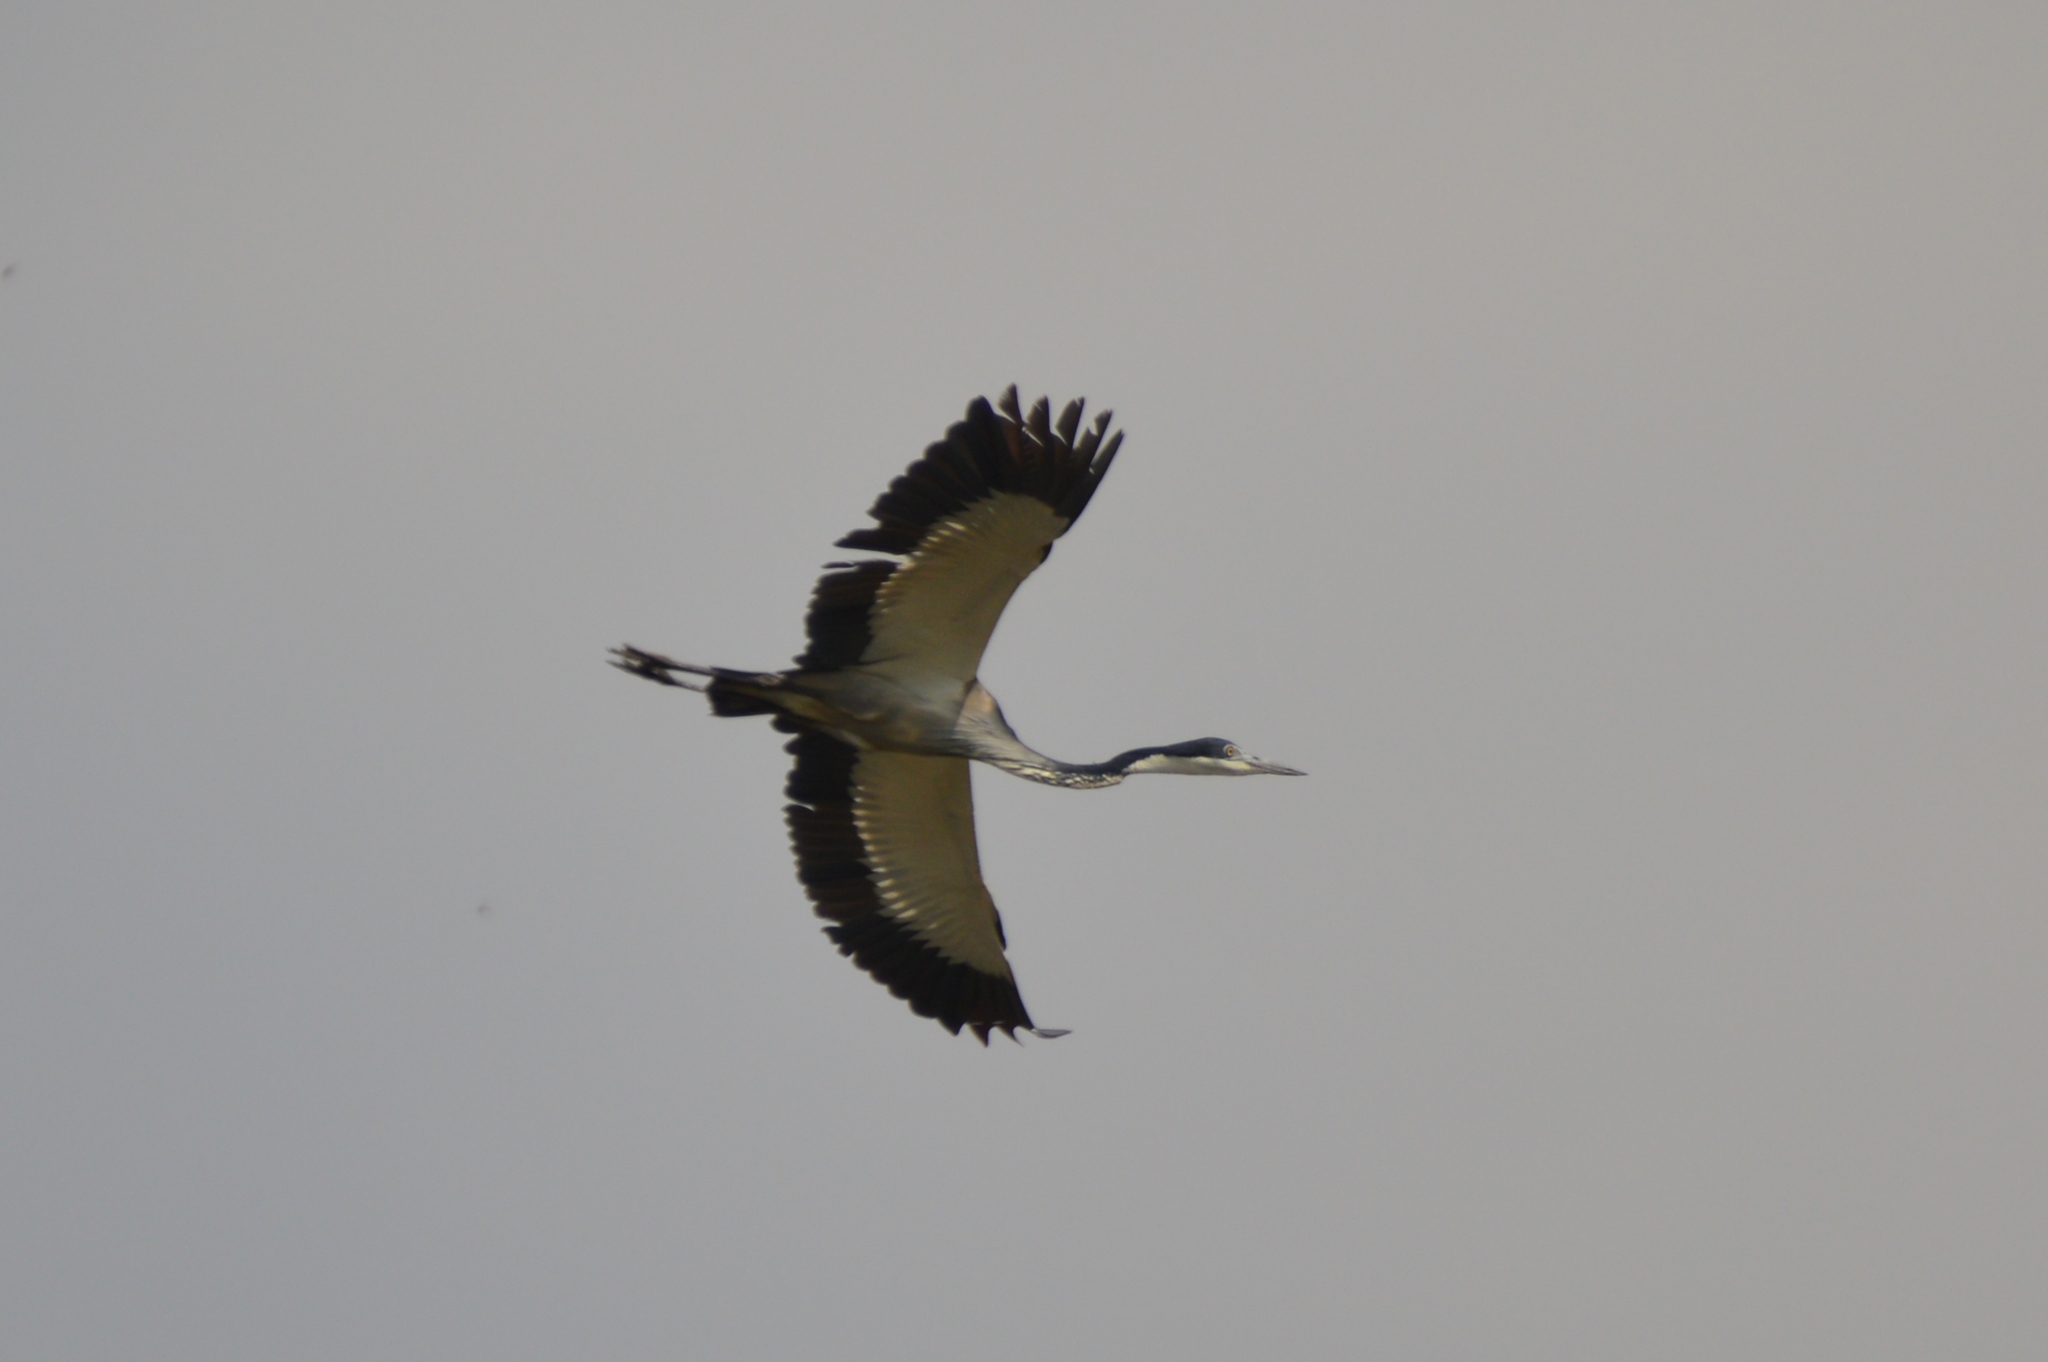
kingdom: Animalia
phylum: Chordata
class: Aves
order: Pelecaniformes
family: Ardeidae
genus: Ardea
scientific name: Ardea melanocephala
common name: Black-headed heron
